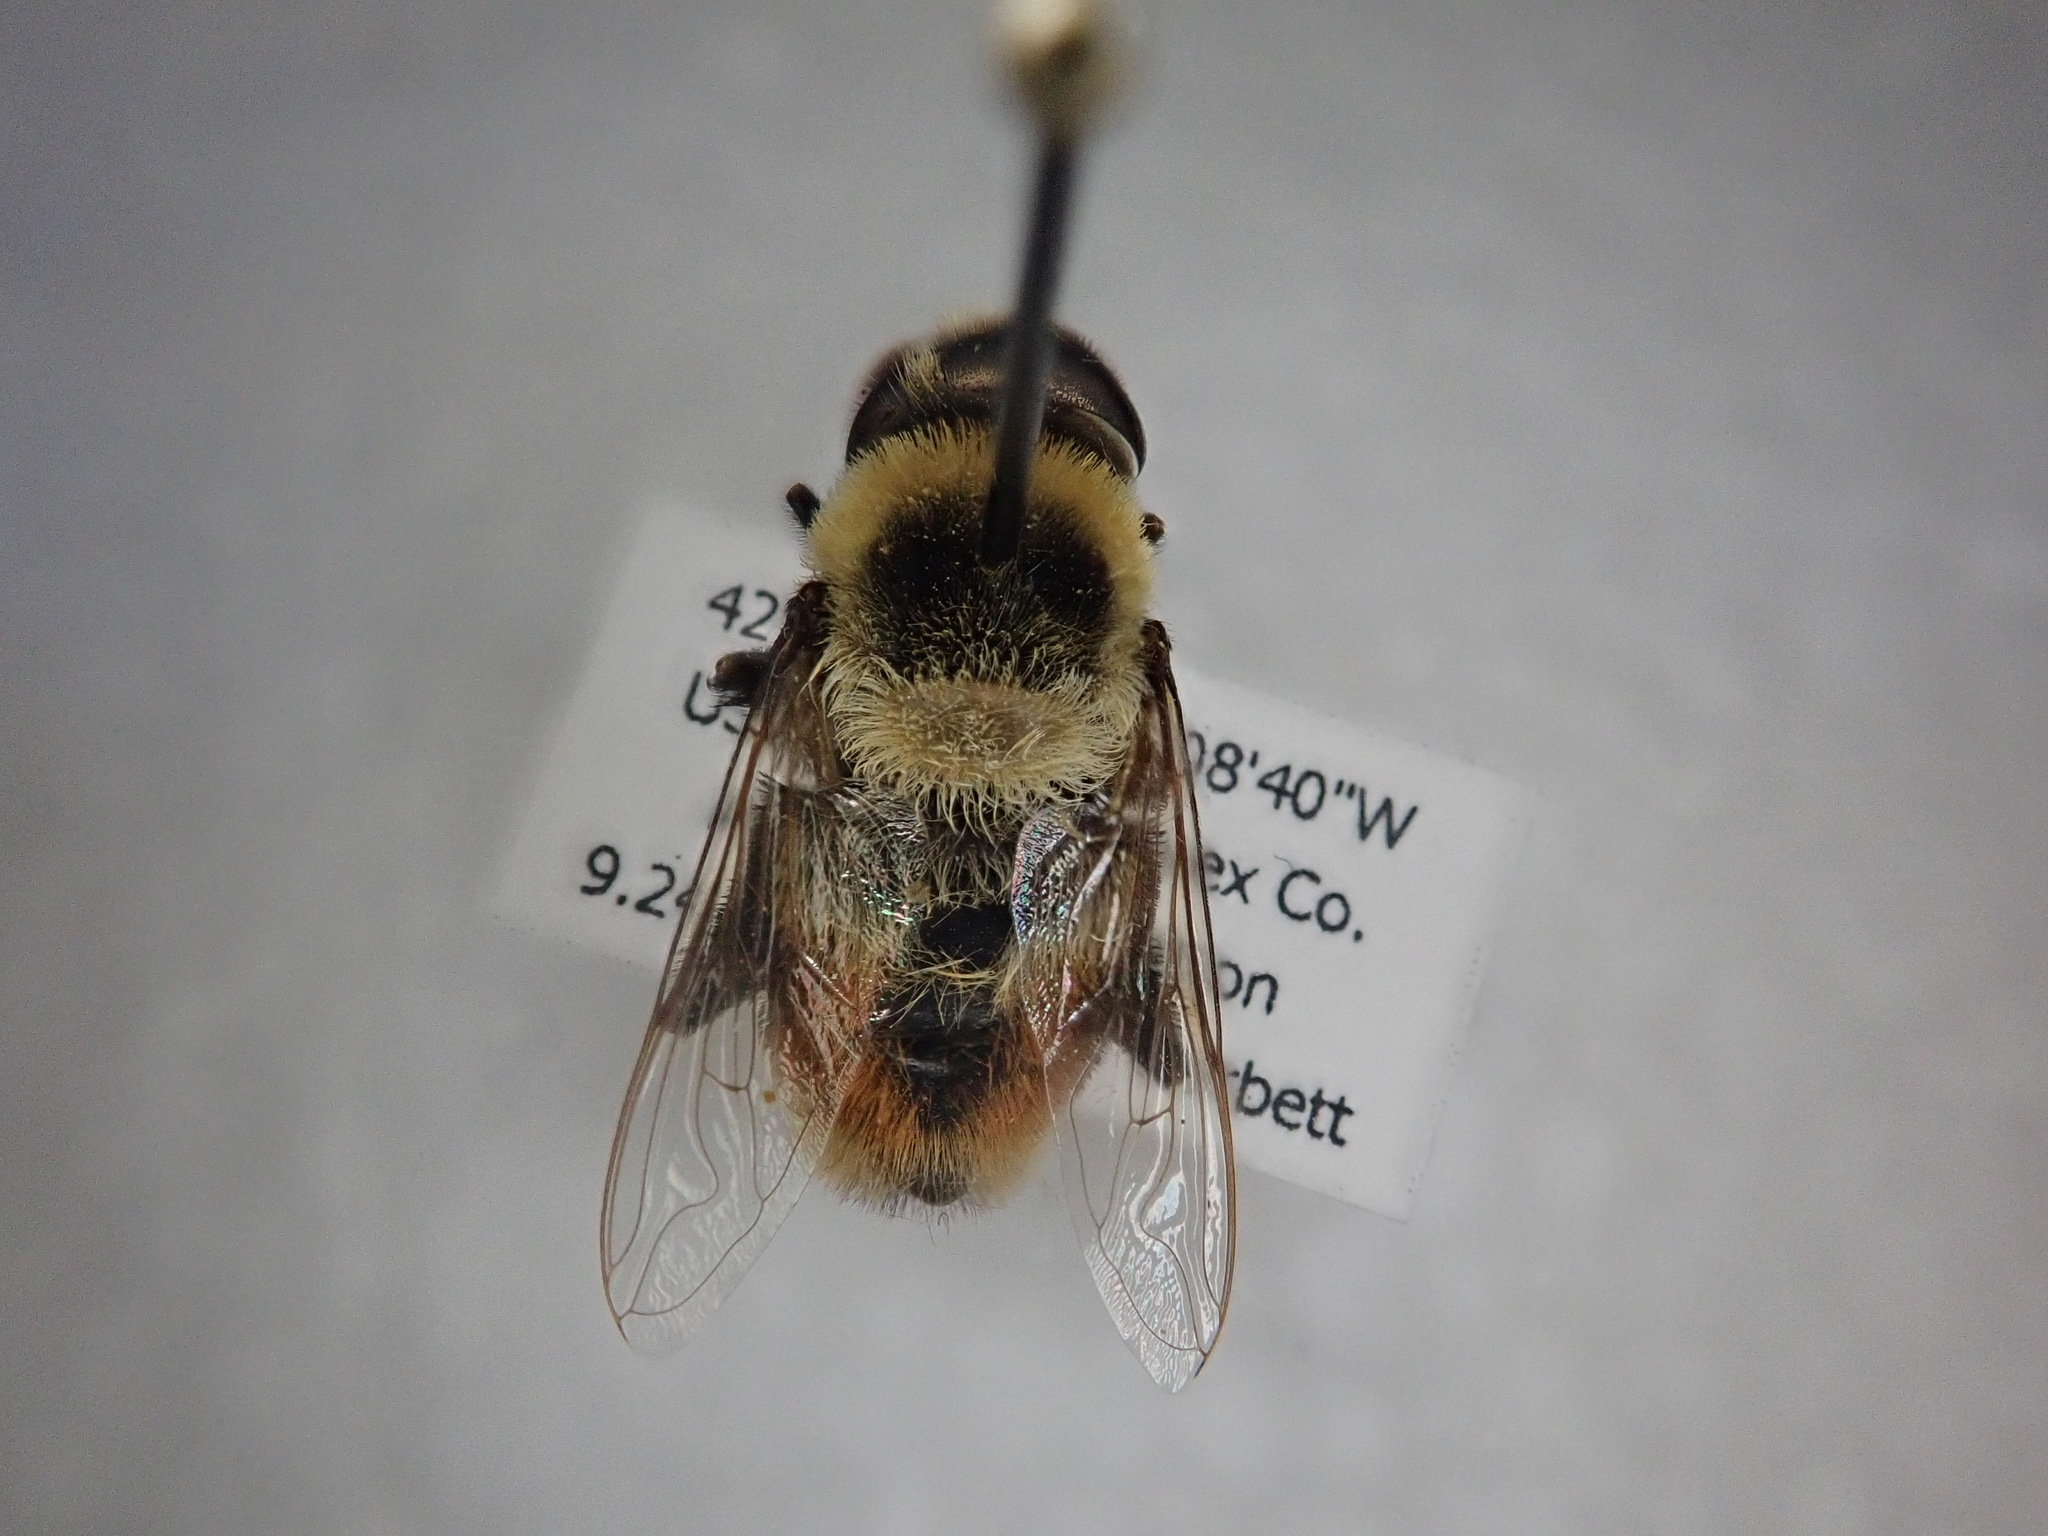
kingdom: Animalia
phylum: Arthropoda
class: Insecta
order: Diptera
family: Syrphidae
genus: Eristalis
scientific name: Eristalis flavipes
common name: Orange-legged drone fly
